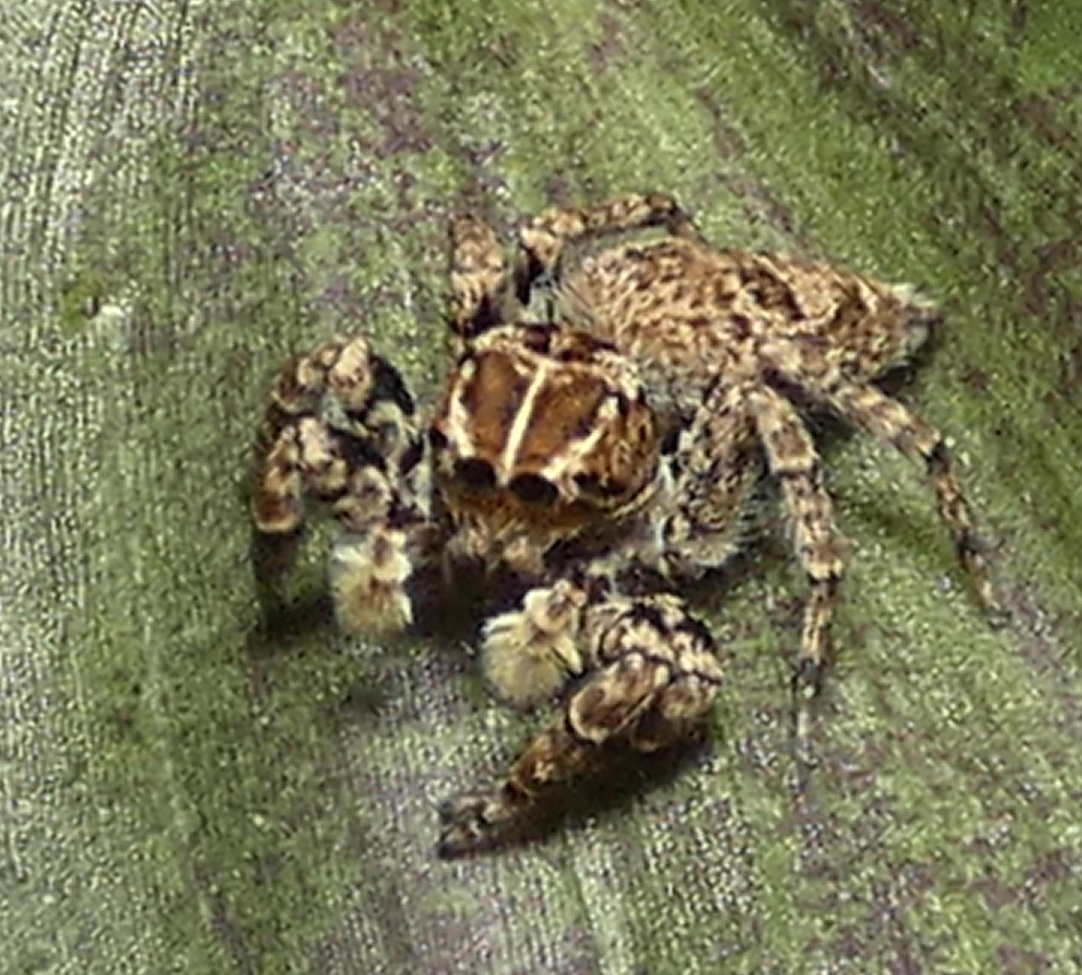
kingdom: Animalia
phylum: Arthropoda
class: Arachnida
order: Araneae
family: Salticidae
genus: Sumampattus
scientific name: Sumampattus quinqueradiatus
